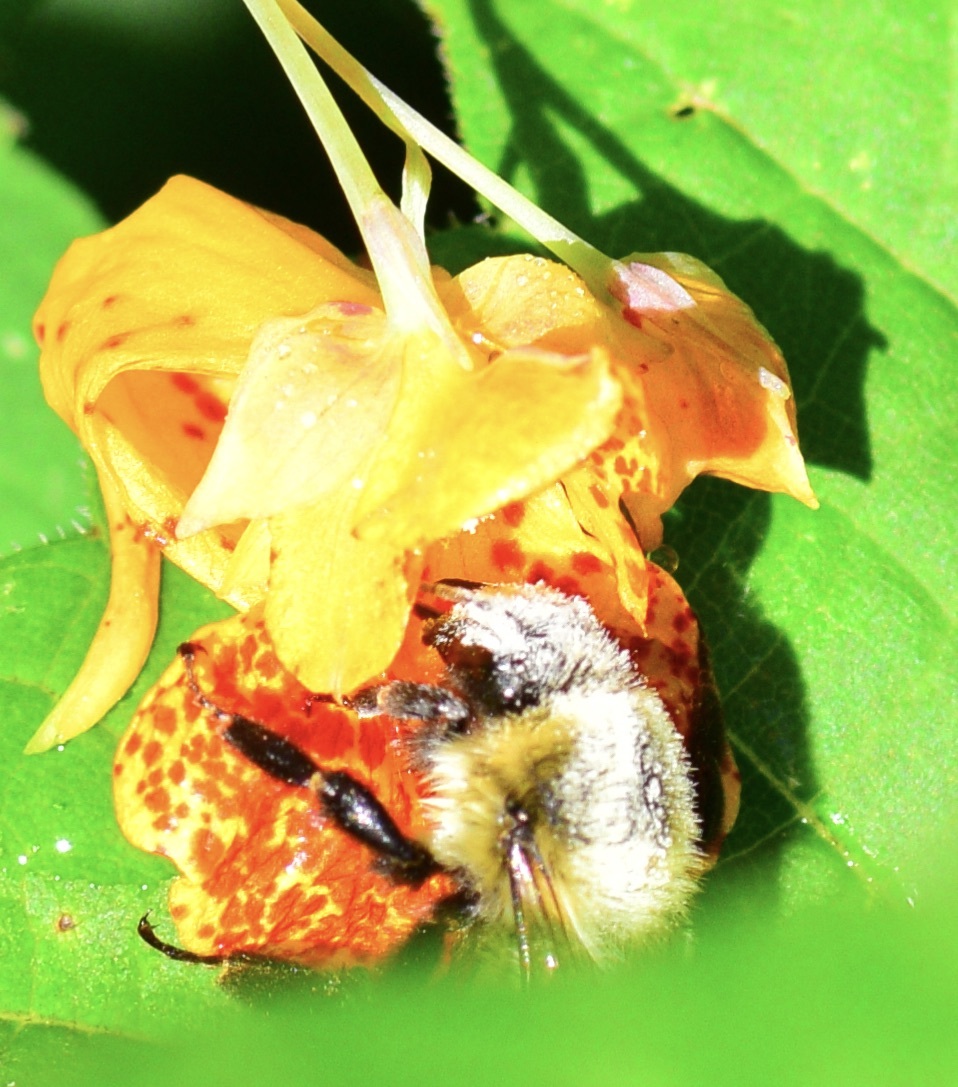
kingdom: Animalia
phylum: Arthropoda
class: Insecta
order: Hymenoptera
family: Apidae
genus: Bombus
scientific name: Bombus impatiens
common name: Common eastern bumble bee
